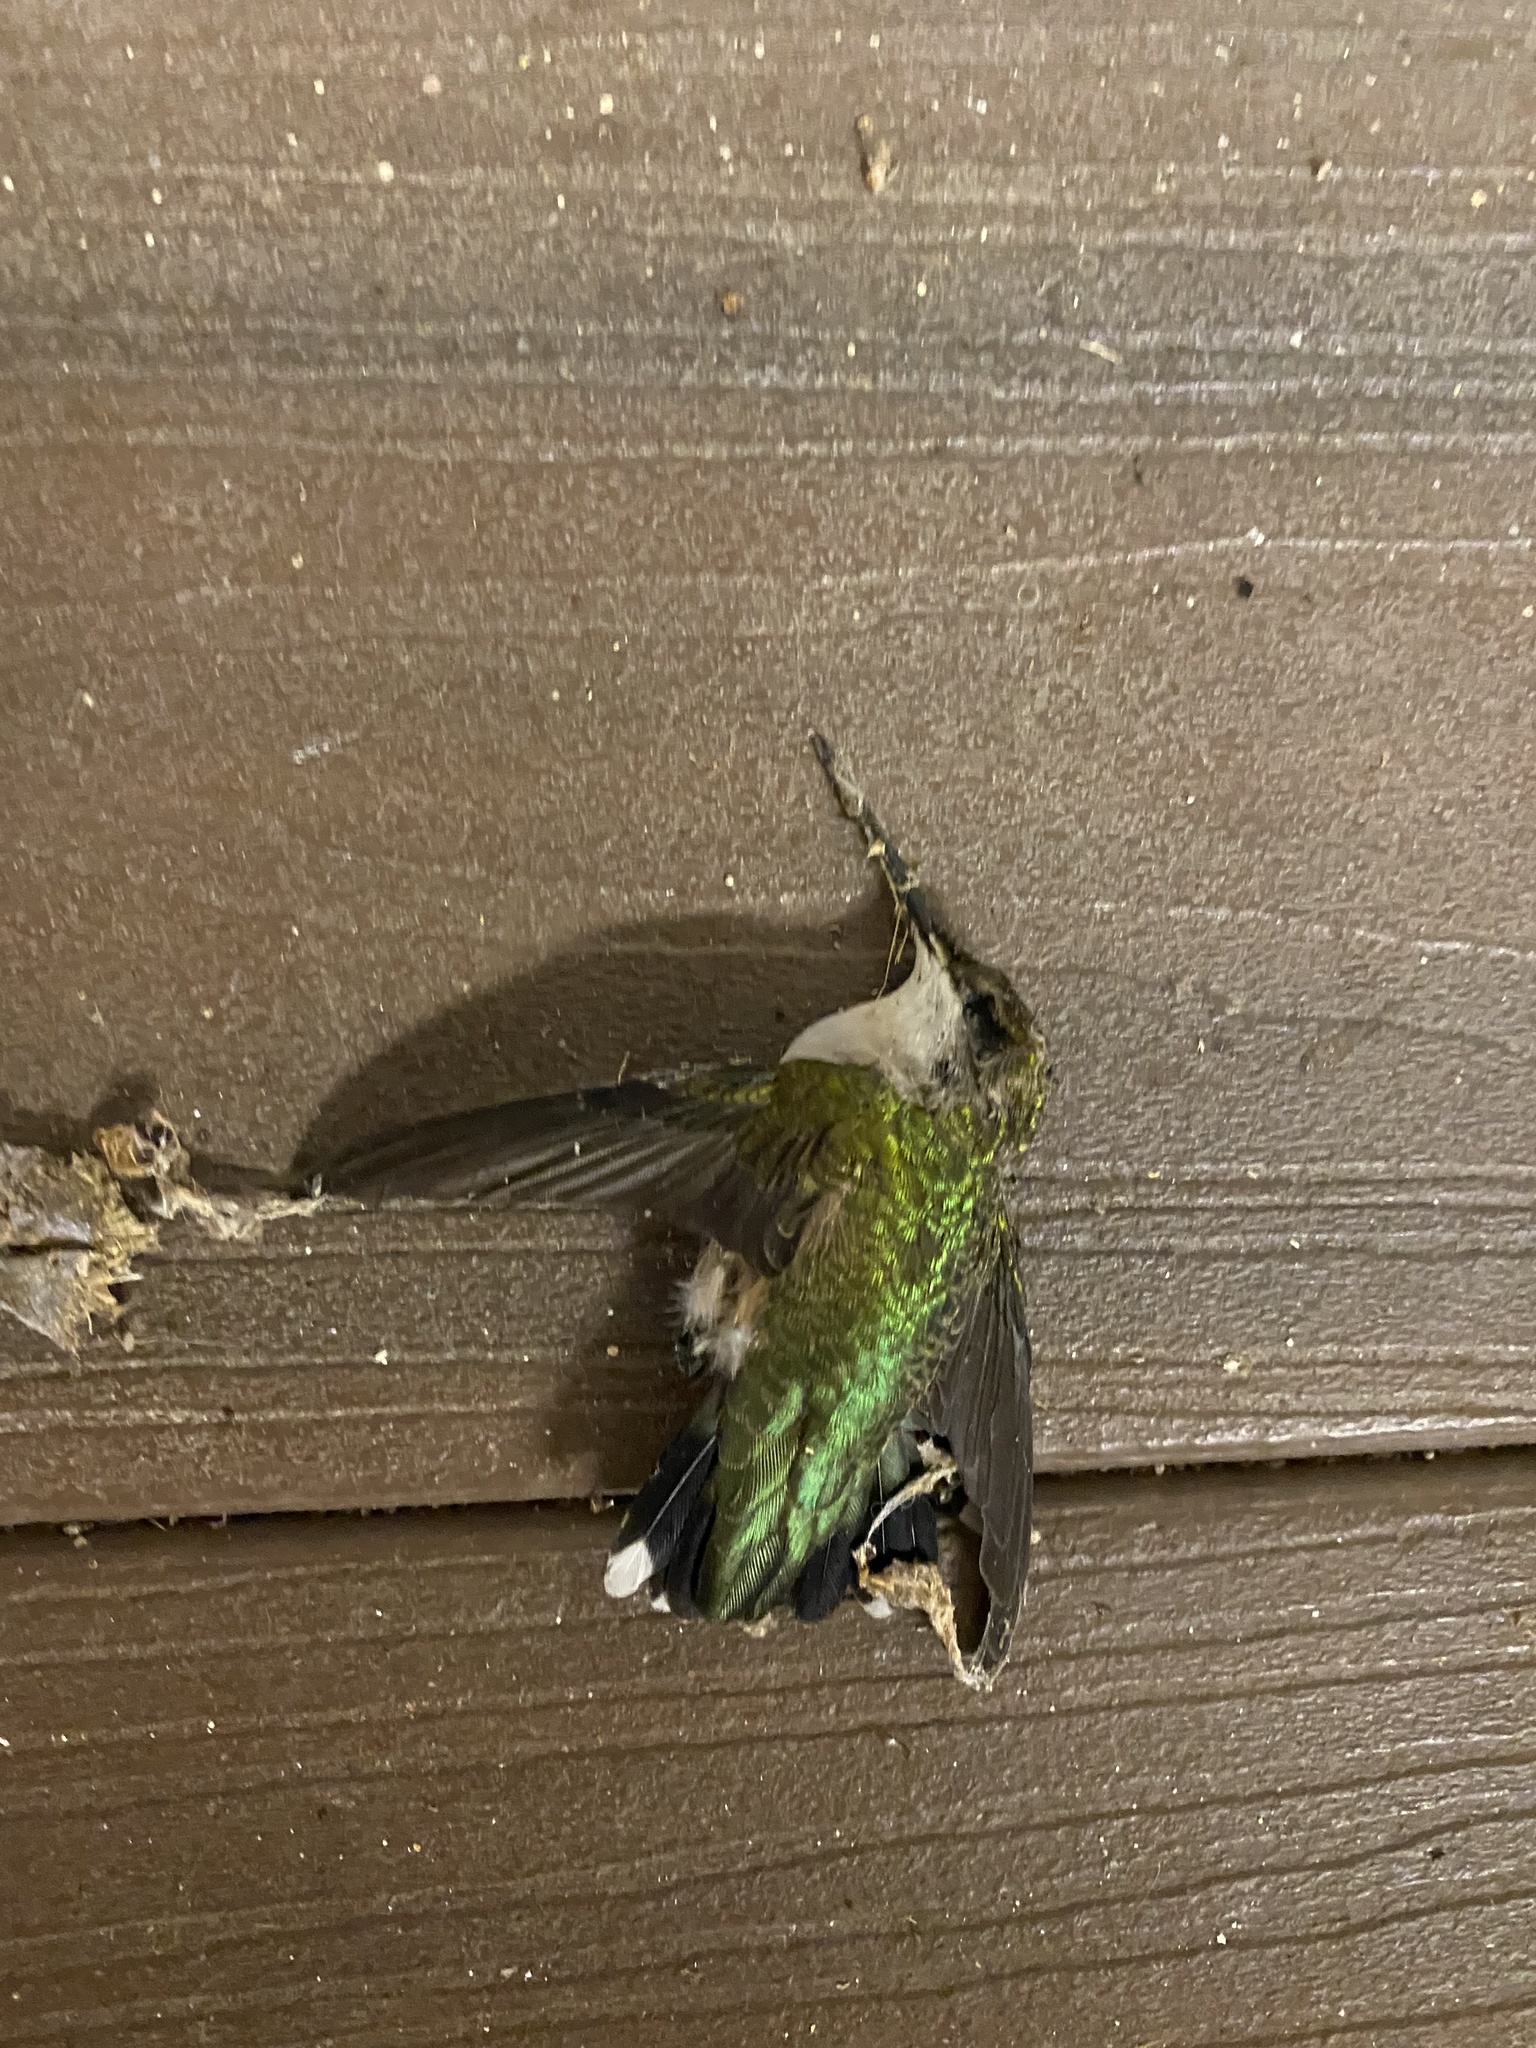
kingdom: Animalia
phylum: Chordata
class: Aves
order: Apodiformes
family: Trochilidae
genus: Archilochus
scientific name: Archilochus colubris
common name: Ruby-throated hummingbird
